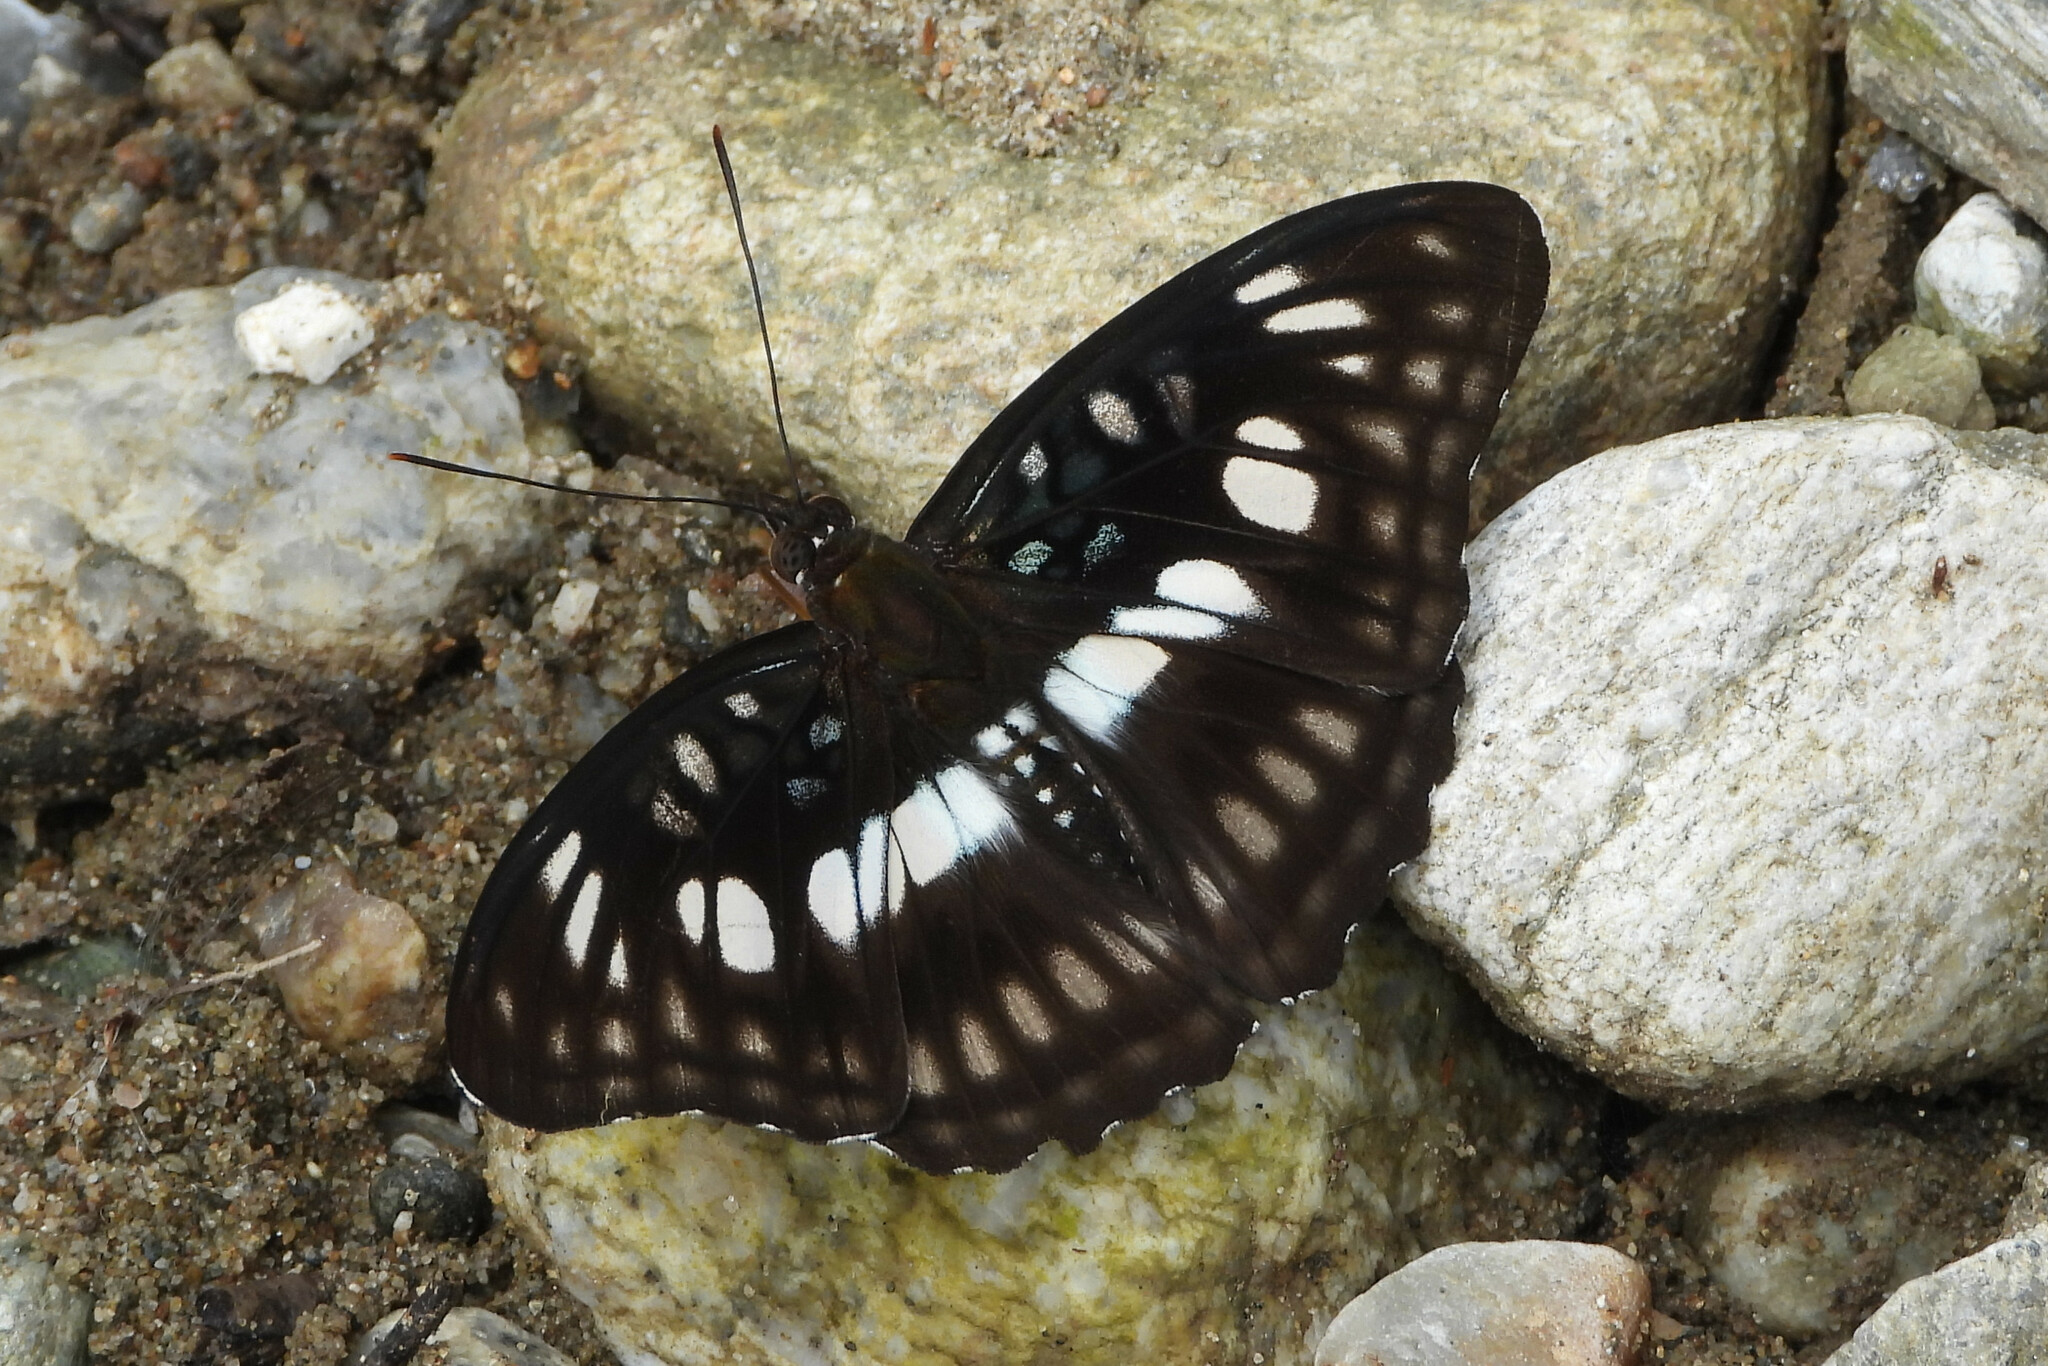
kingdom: Animalia
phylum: Arthropoda
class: Insecta
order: Lepidoptera
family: Nymphalidae
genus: Parathyma
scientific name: Parathyma ranga
